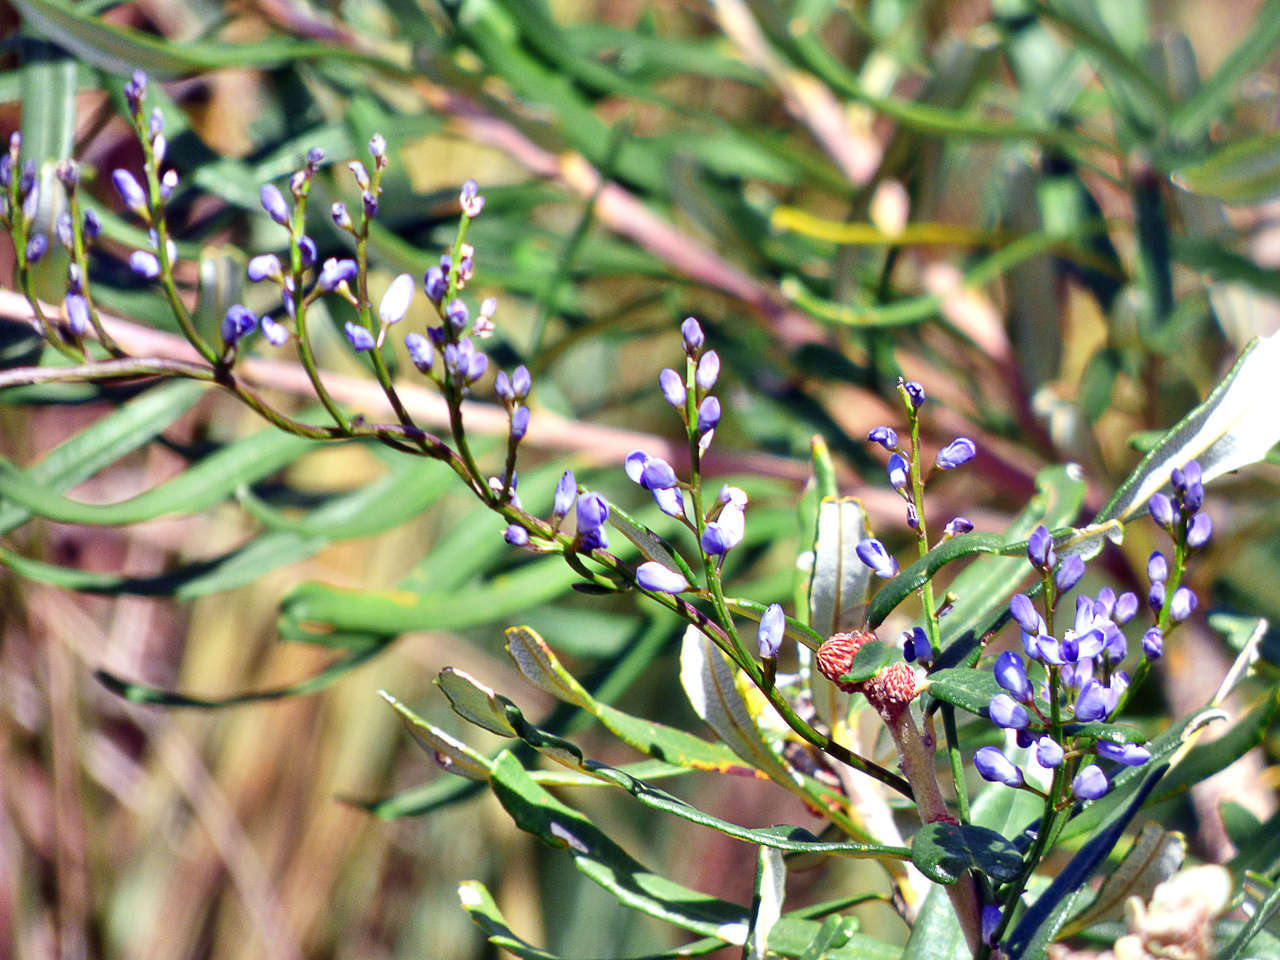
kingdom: Plantae
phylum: Tracheophyta
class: Magnoliopsida
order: Fabales
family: Polygalaceae
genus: Comesperma
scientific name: Comesperma volubile
